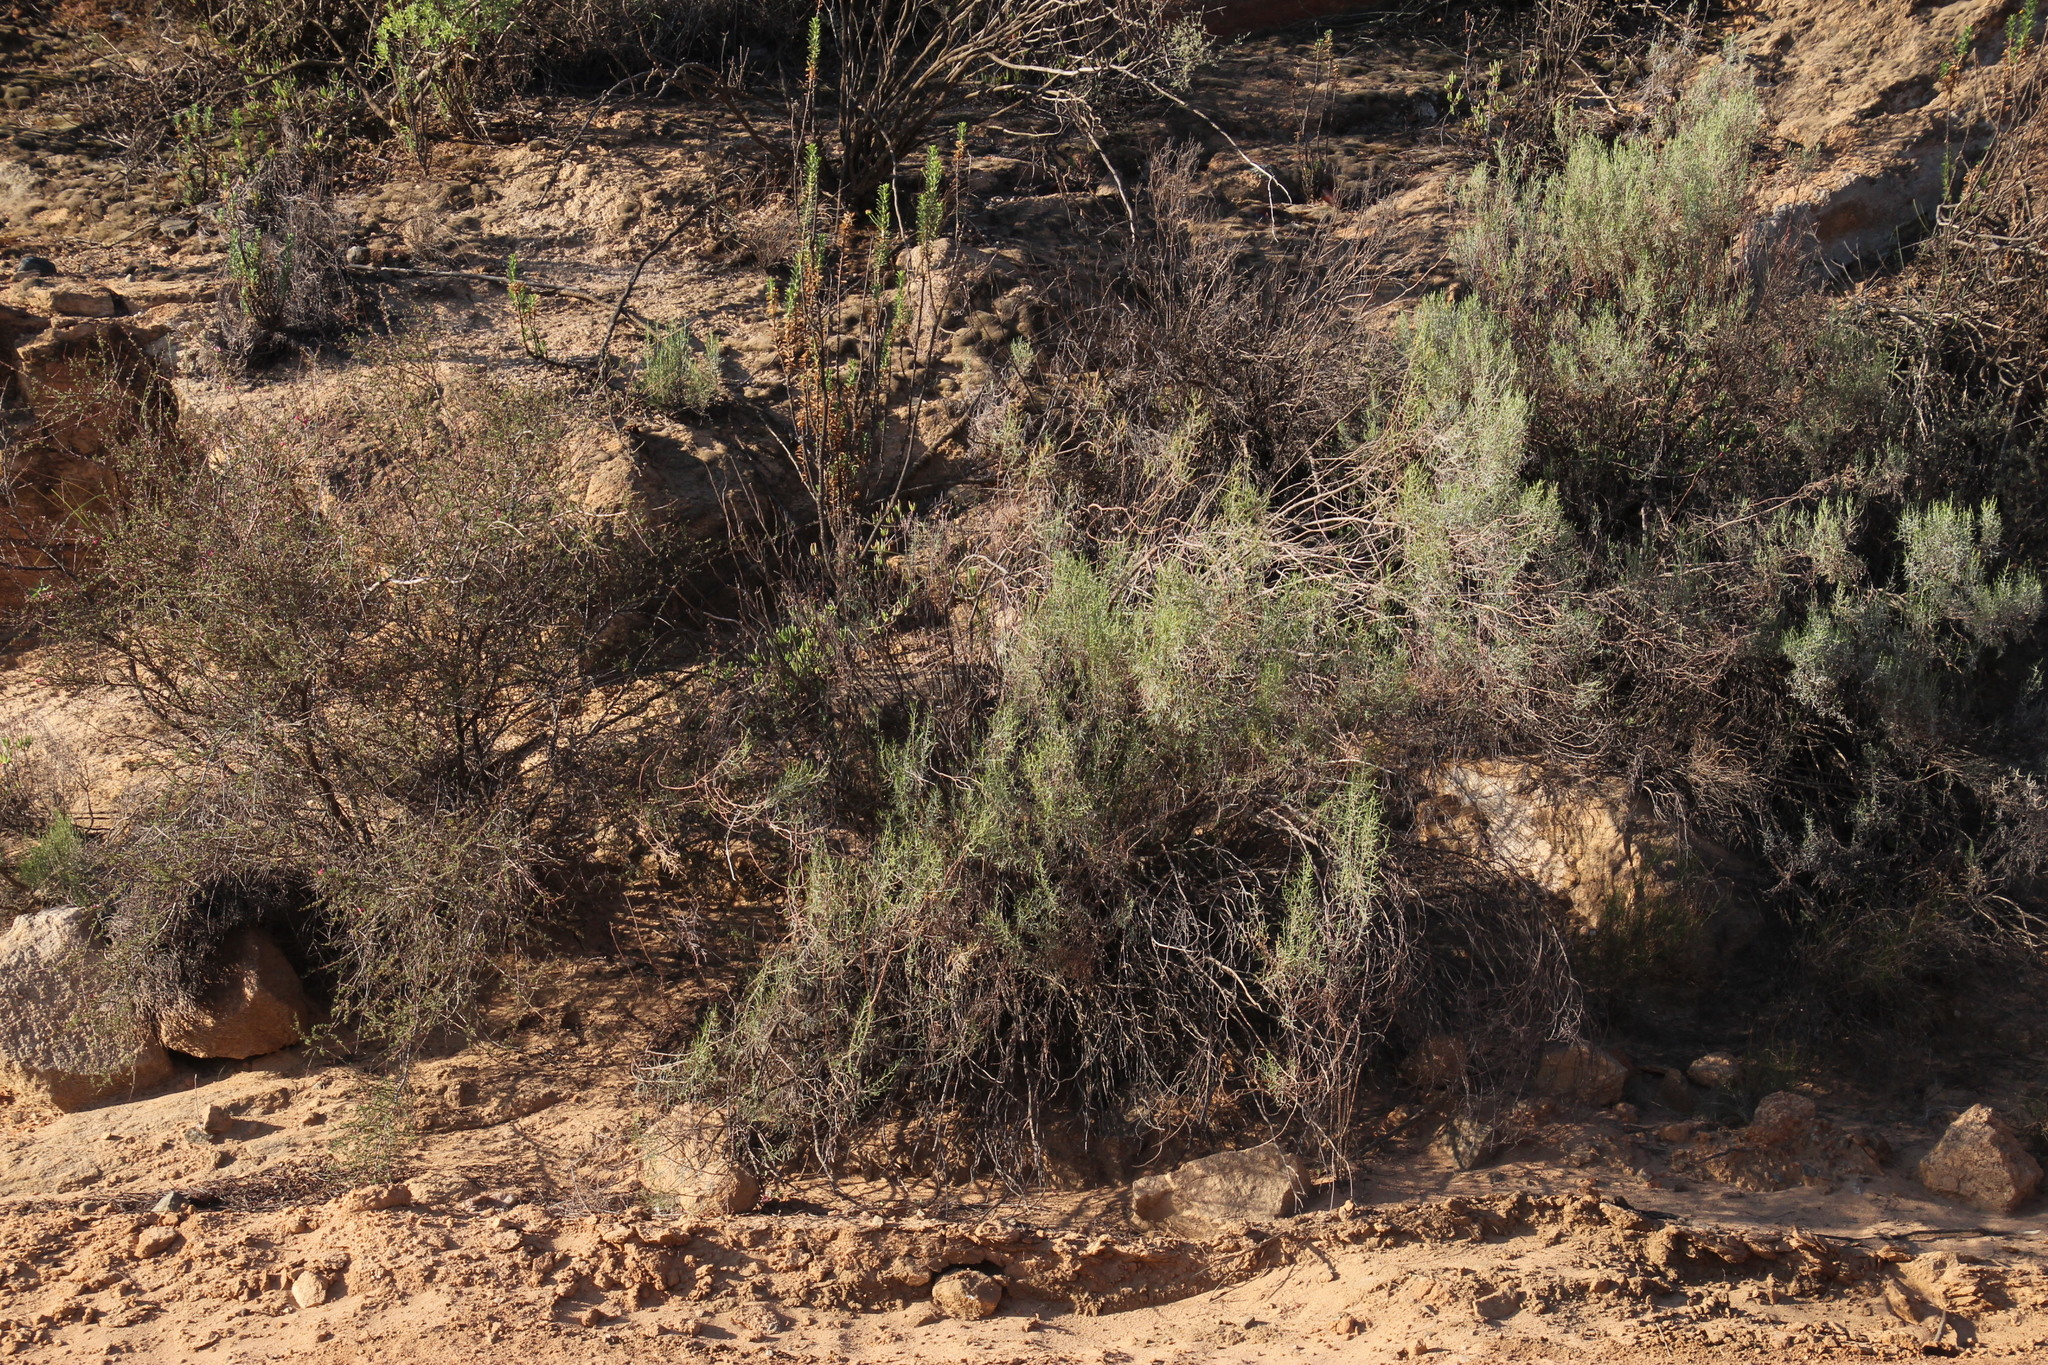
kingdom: Plantae
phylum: Tracheophyta
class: Magnoliopsida
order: Asterales
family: Asteraceae
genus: Dicerothamnus
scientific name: Dicerothamnus rhinocerotis
